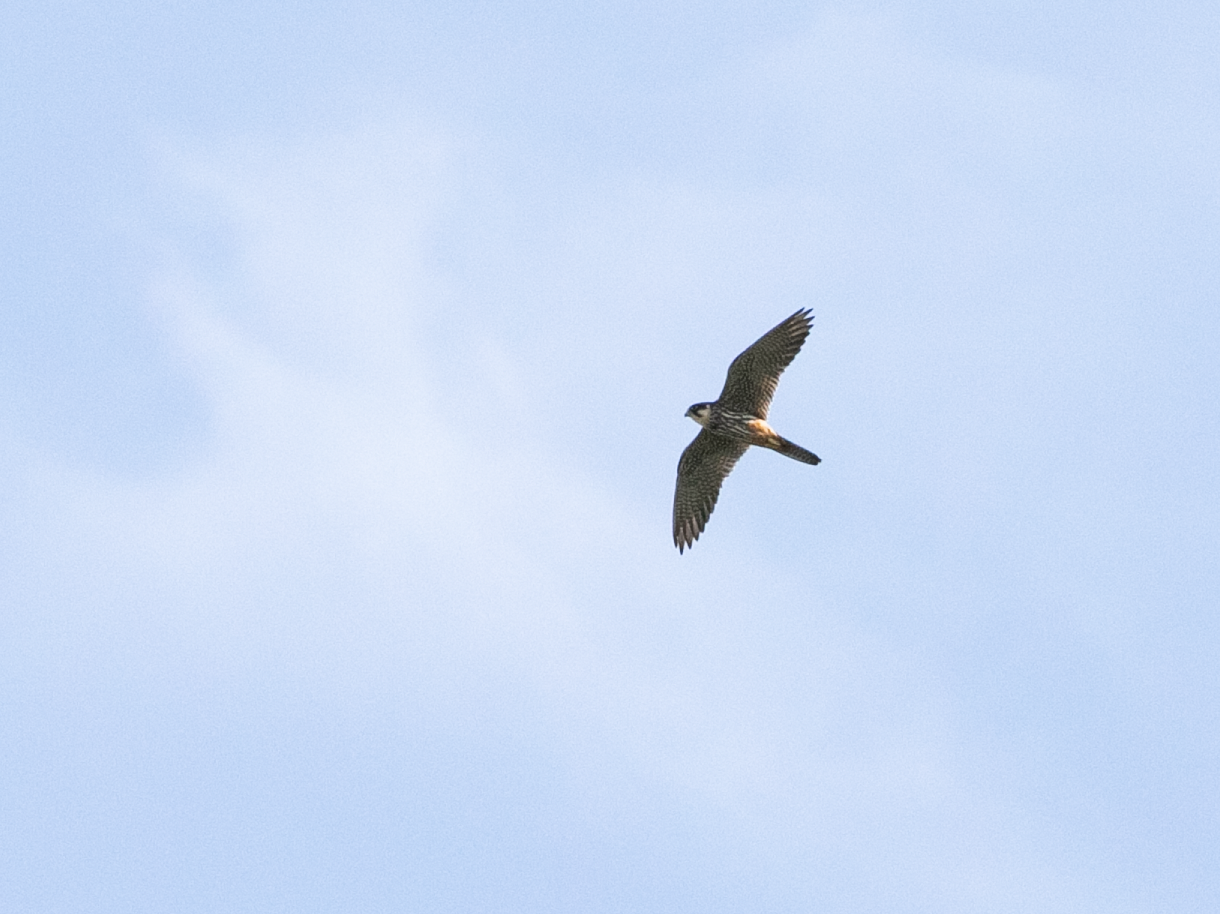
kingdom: Animalia
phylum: Chordata
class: Aves
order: Falconiformes
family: Falconidae
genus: Falco
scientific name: Falco subbuteo
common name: Eurasian hobby
